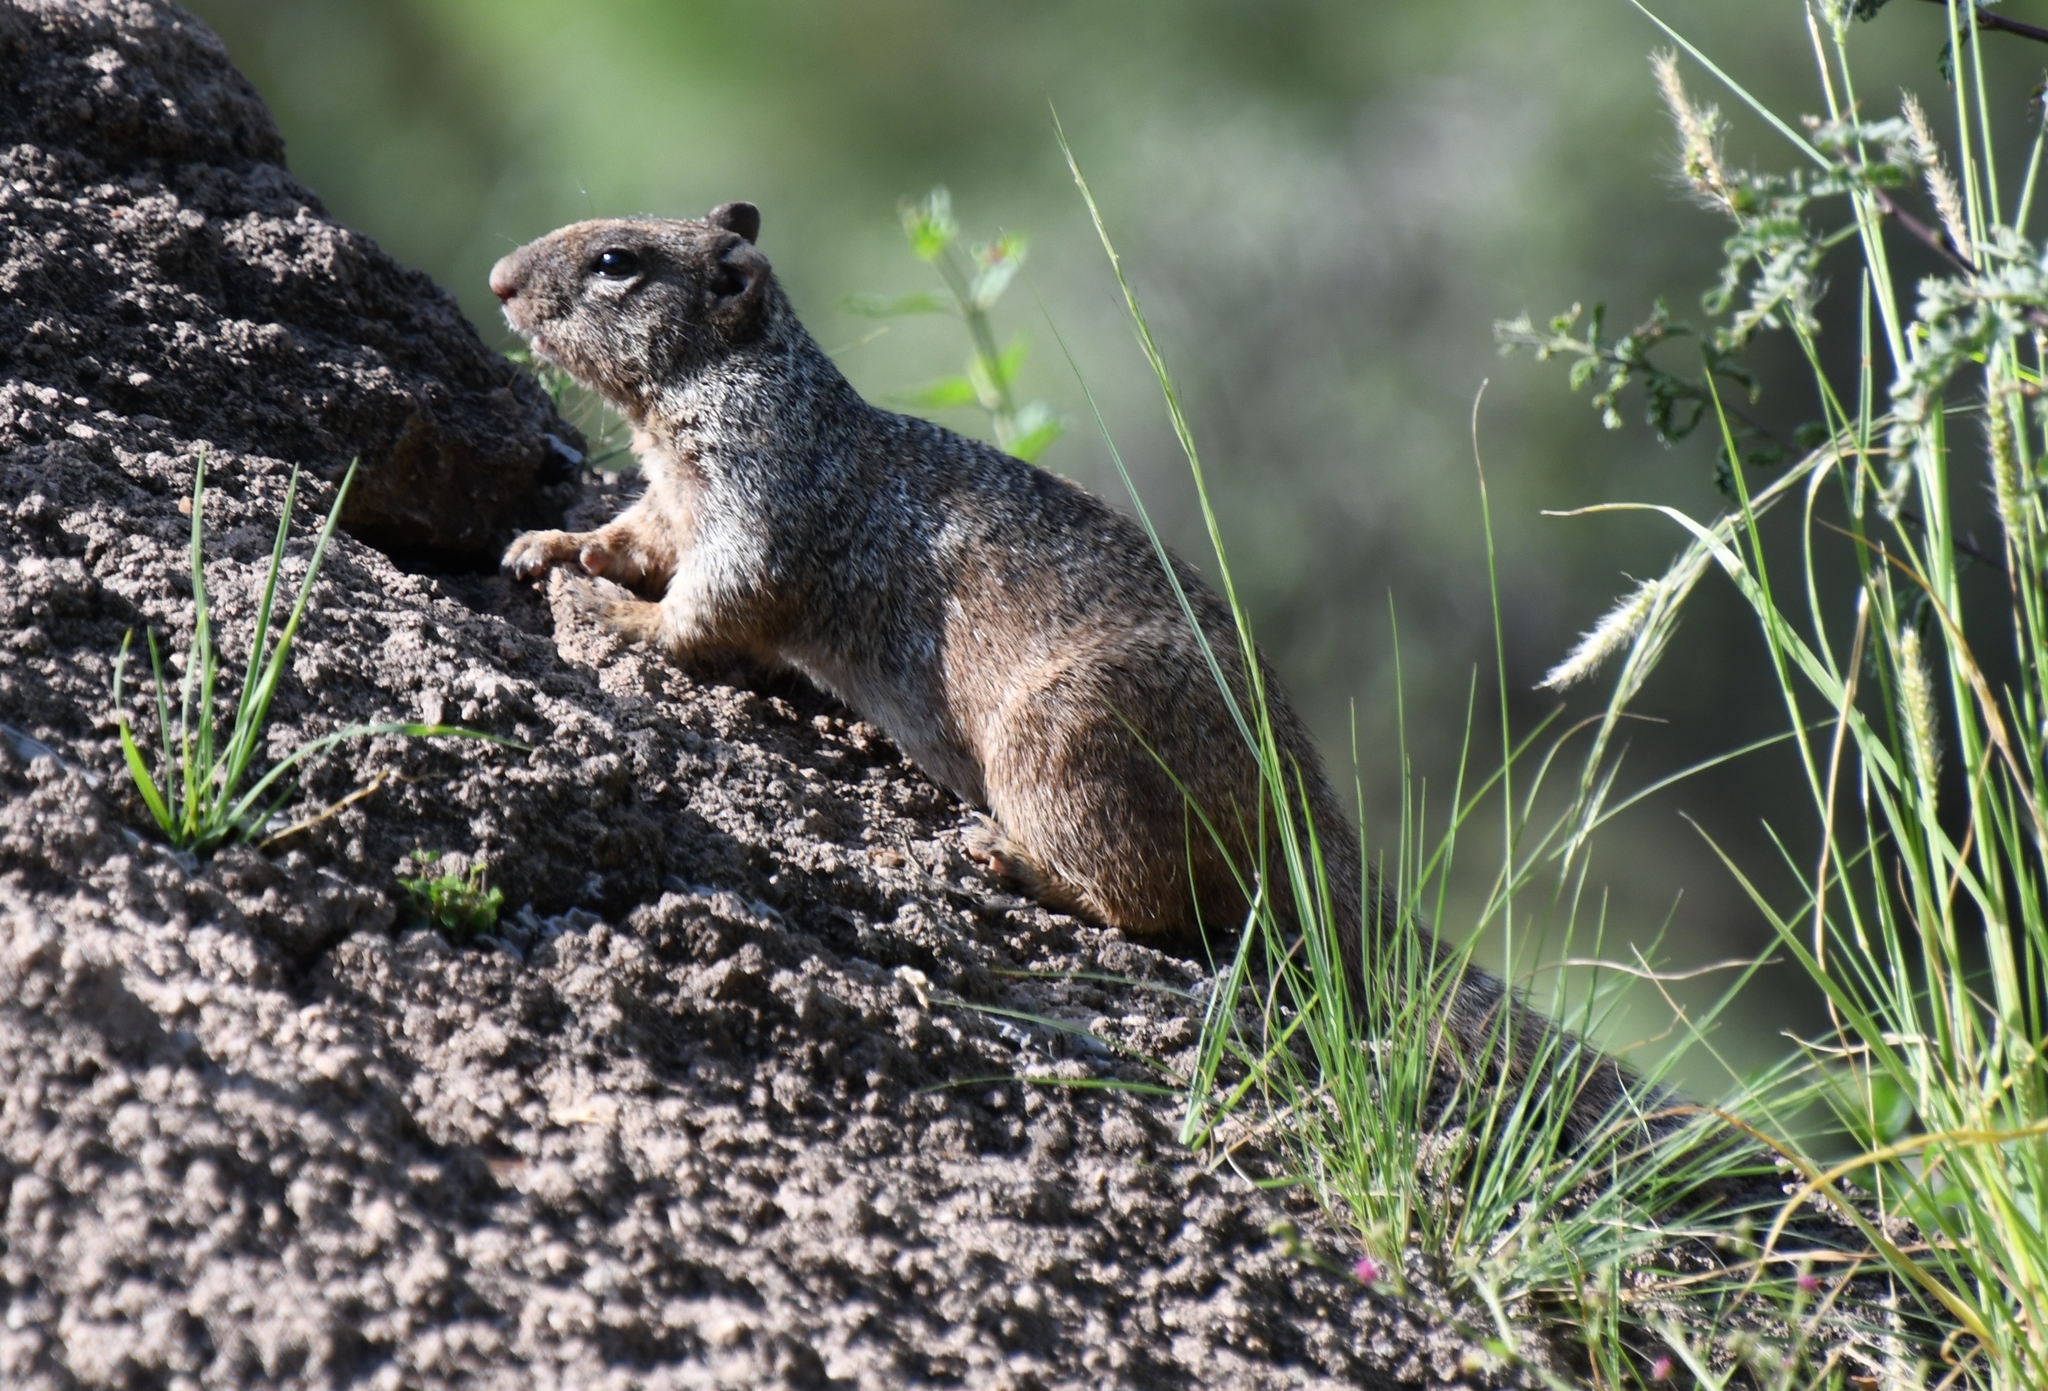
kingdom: Animalia
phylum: Chordata
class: Mammalia
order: Rodentia
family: Sciuridae
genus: Otospermophilus
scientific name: Otospermophilus variegatus
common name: Rock squirrel
